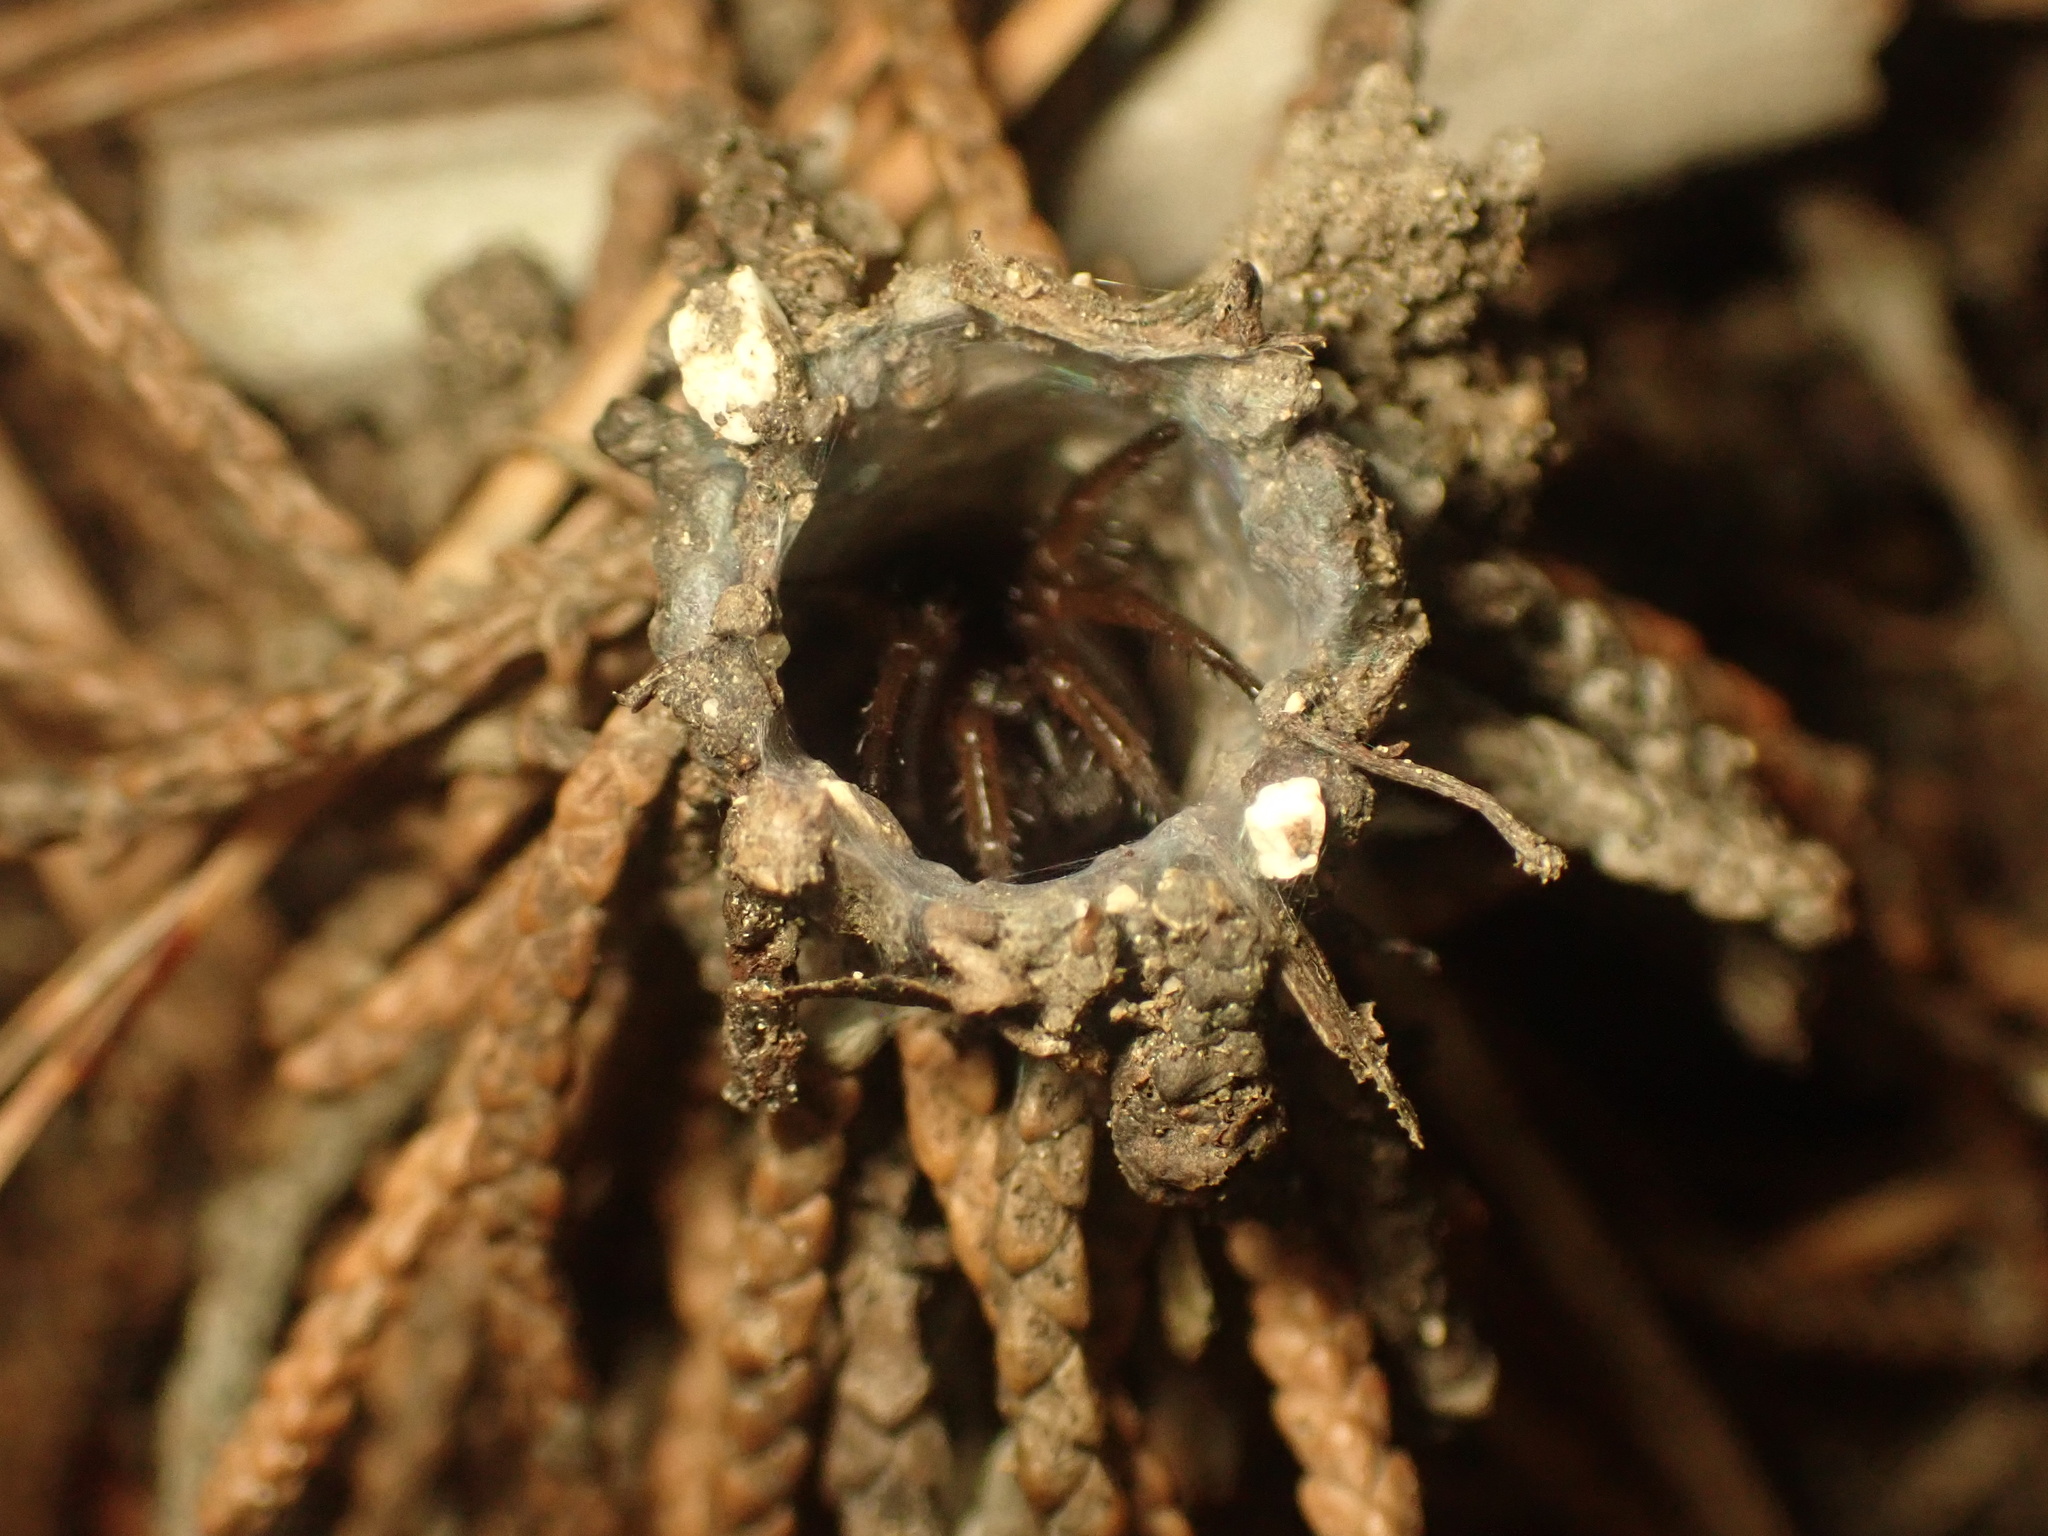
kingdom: Animalia
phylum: Arthropoda
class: Arachnida
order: Araneae
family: Antrodiaetidae
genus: Atypoides
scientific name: Atypoides riversi
